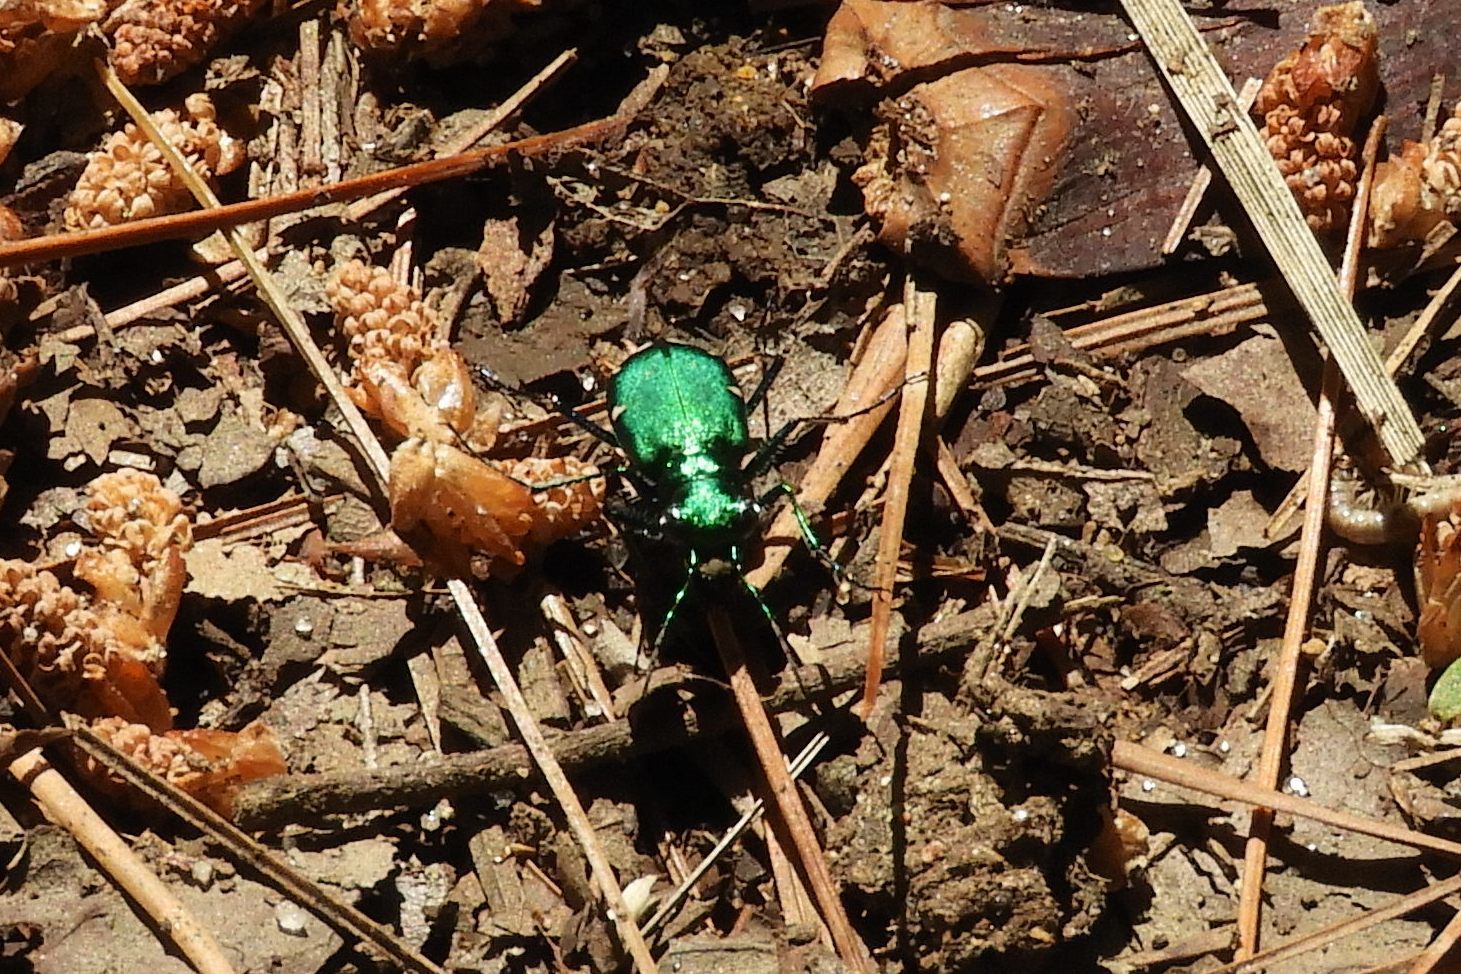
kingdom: Animalia
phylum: Arthropoda
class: Insecta
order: Coleoptera
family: Carabidae
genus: Cicindela
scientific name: Cicindela sexguttata
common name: Six-spotted tiger beetle
